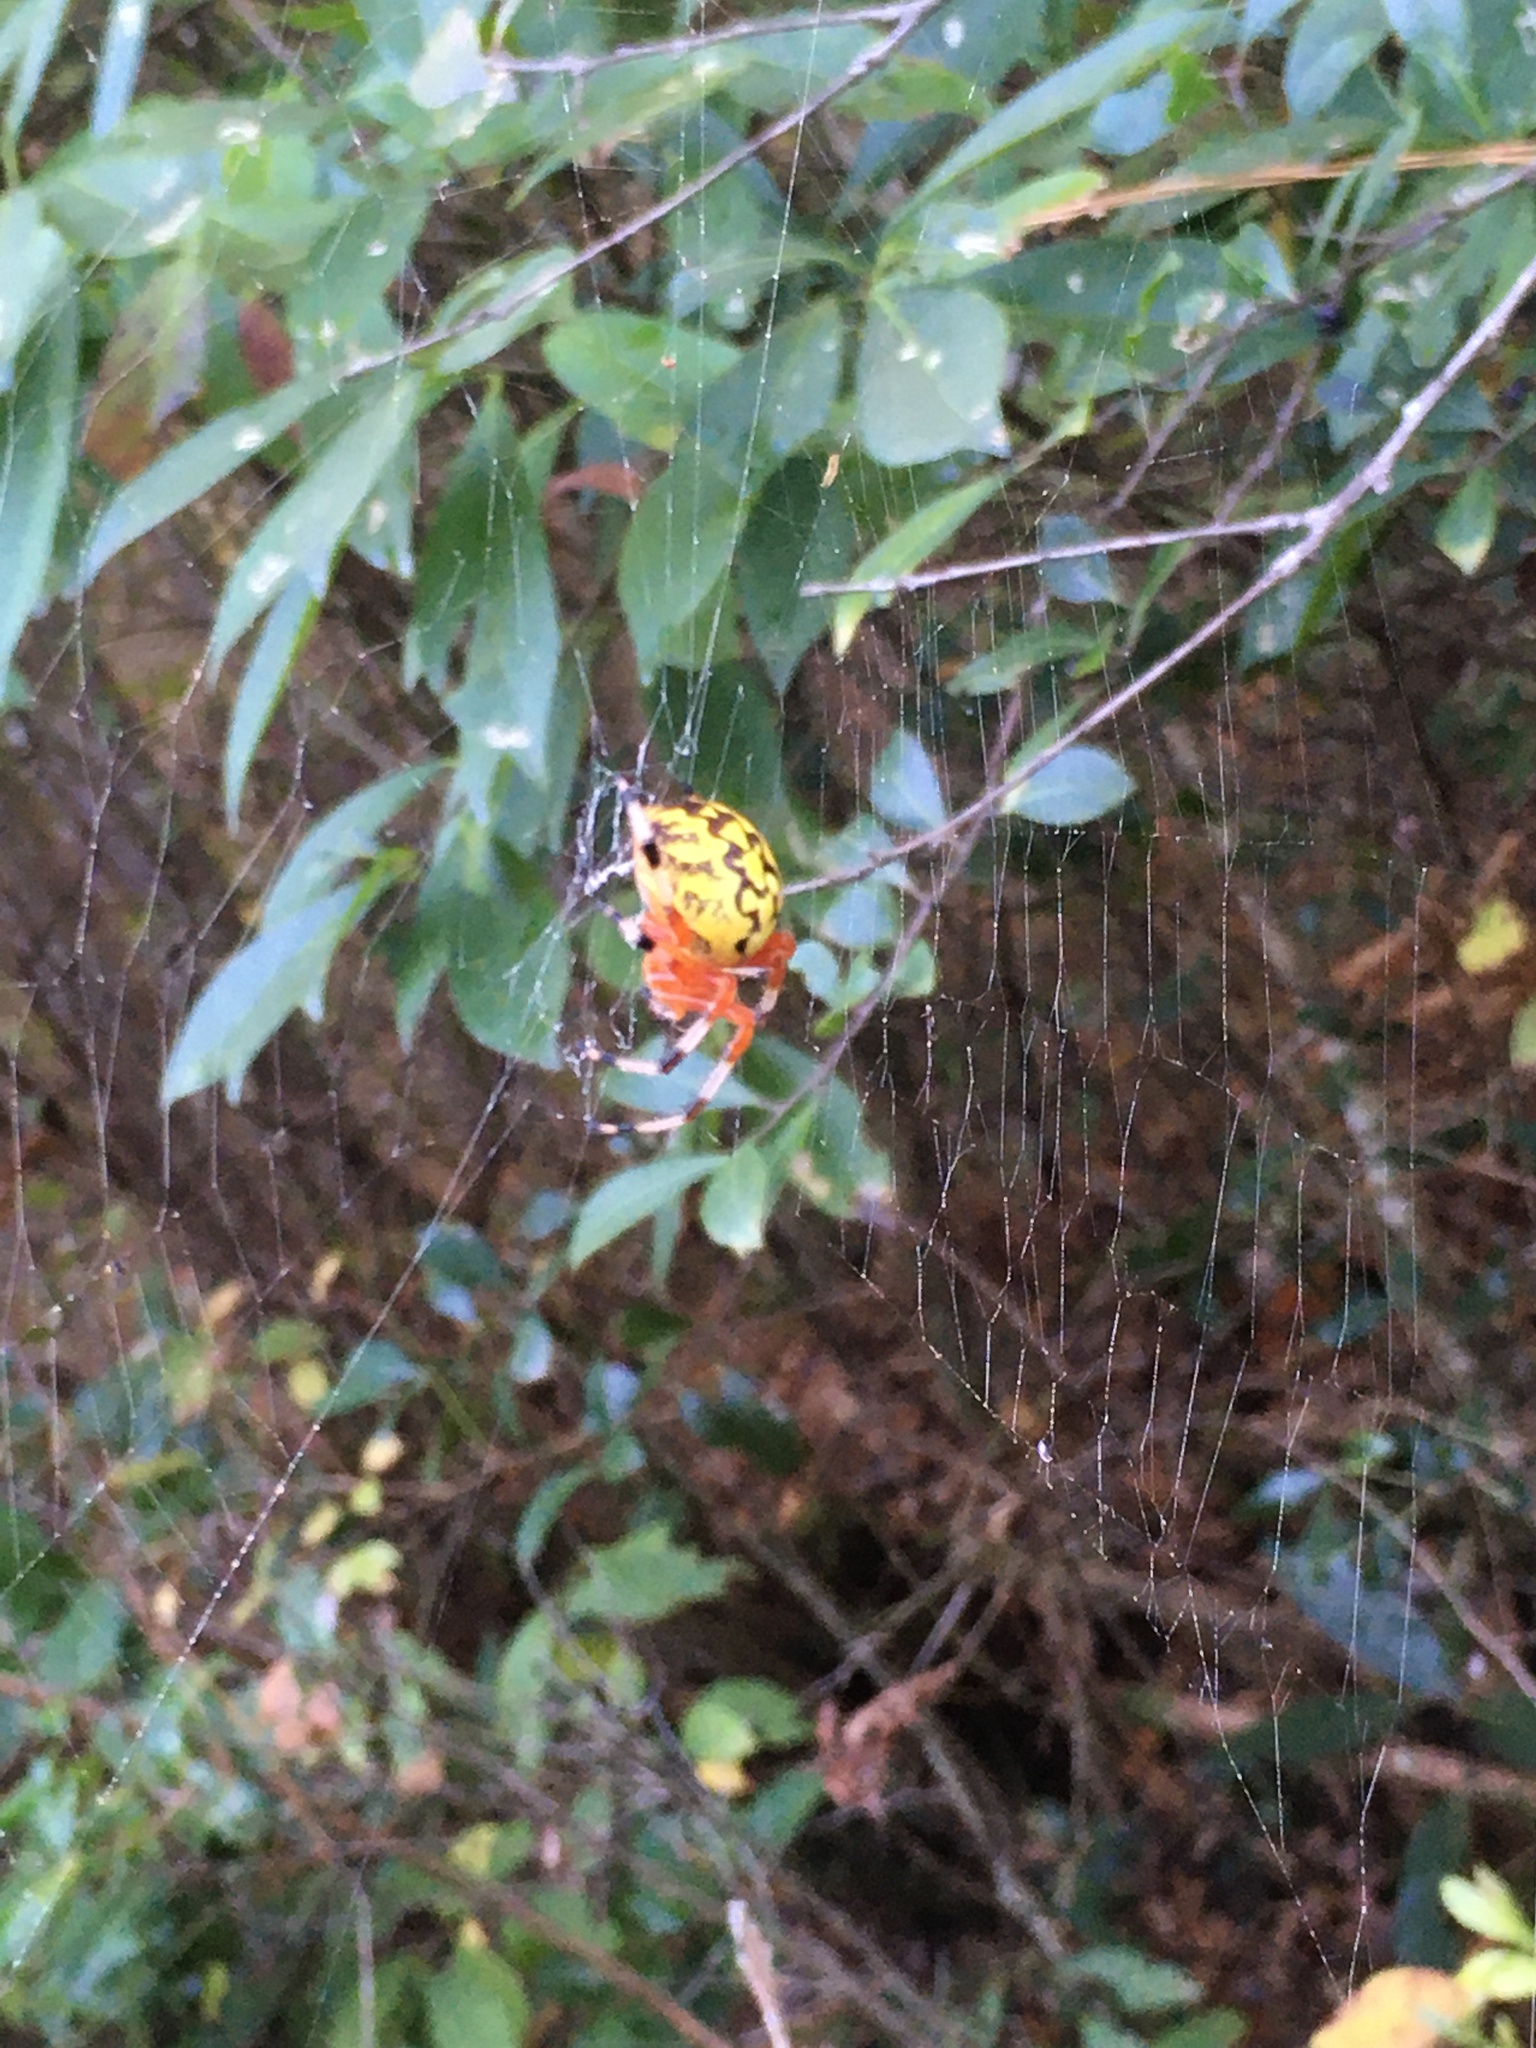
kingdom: Animalia
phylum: Arthropoda
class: Arachnida
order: Araneae
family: Araneidae
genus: Araneus
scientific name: Araneus marmoreus
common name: Marbled orbweaver
